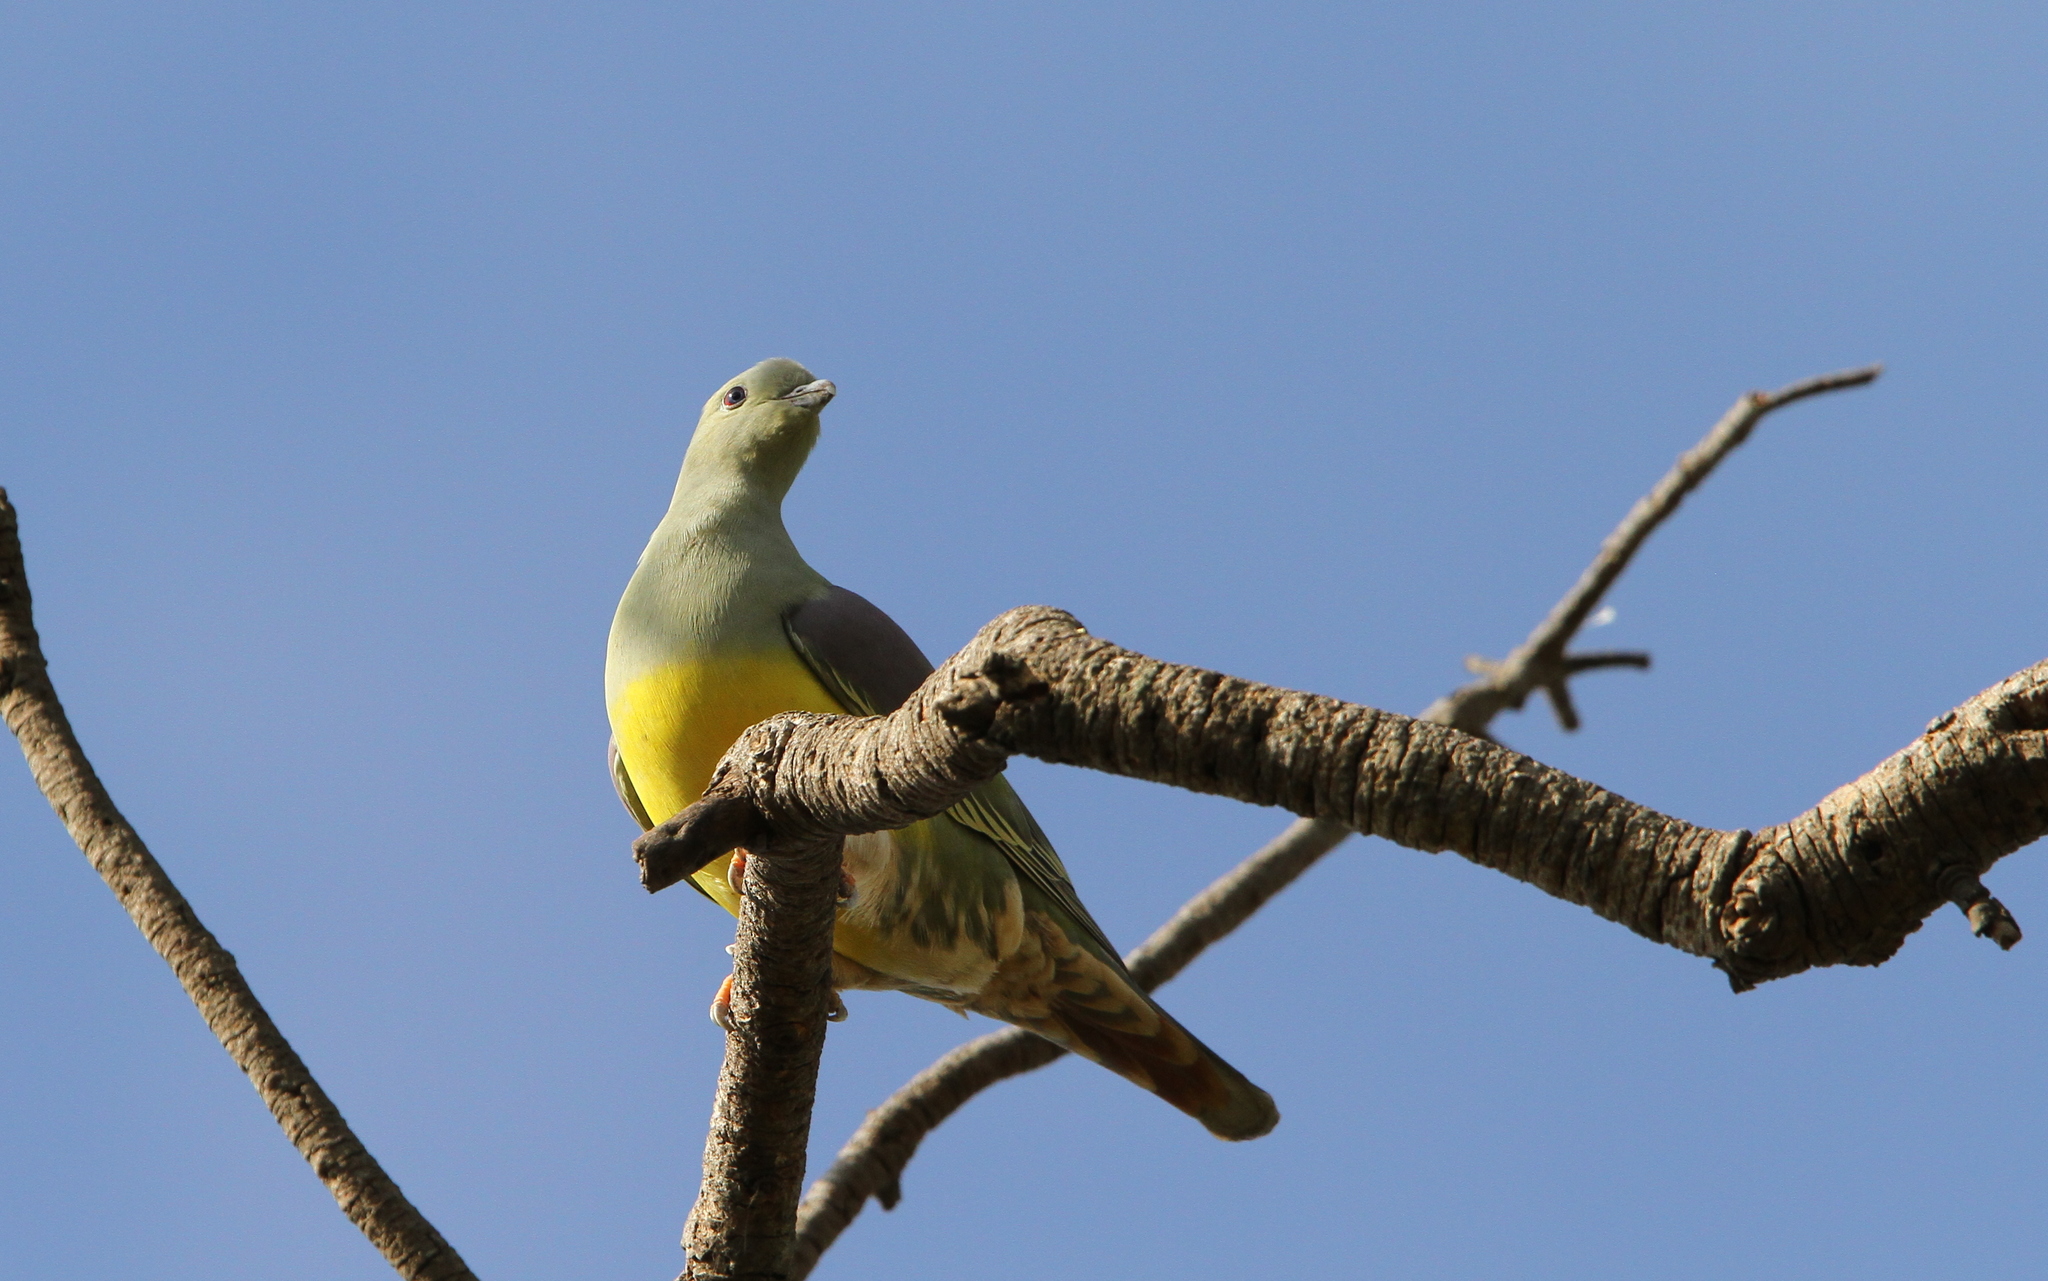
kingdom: Animalia
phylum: Chordata
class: Aves
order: Columbiformes
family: Columbidae
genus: Treron
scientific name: Treron waalia
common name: Bruce's green pigeon
